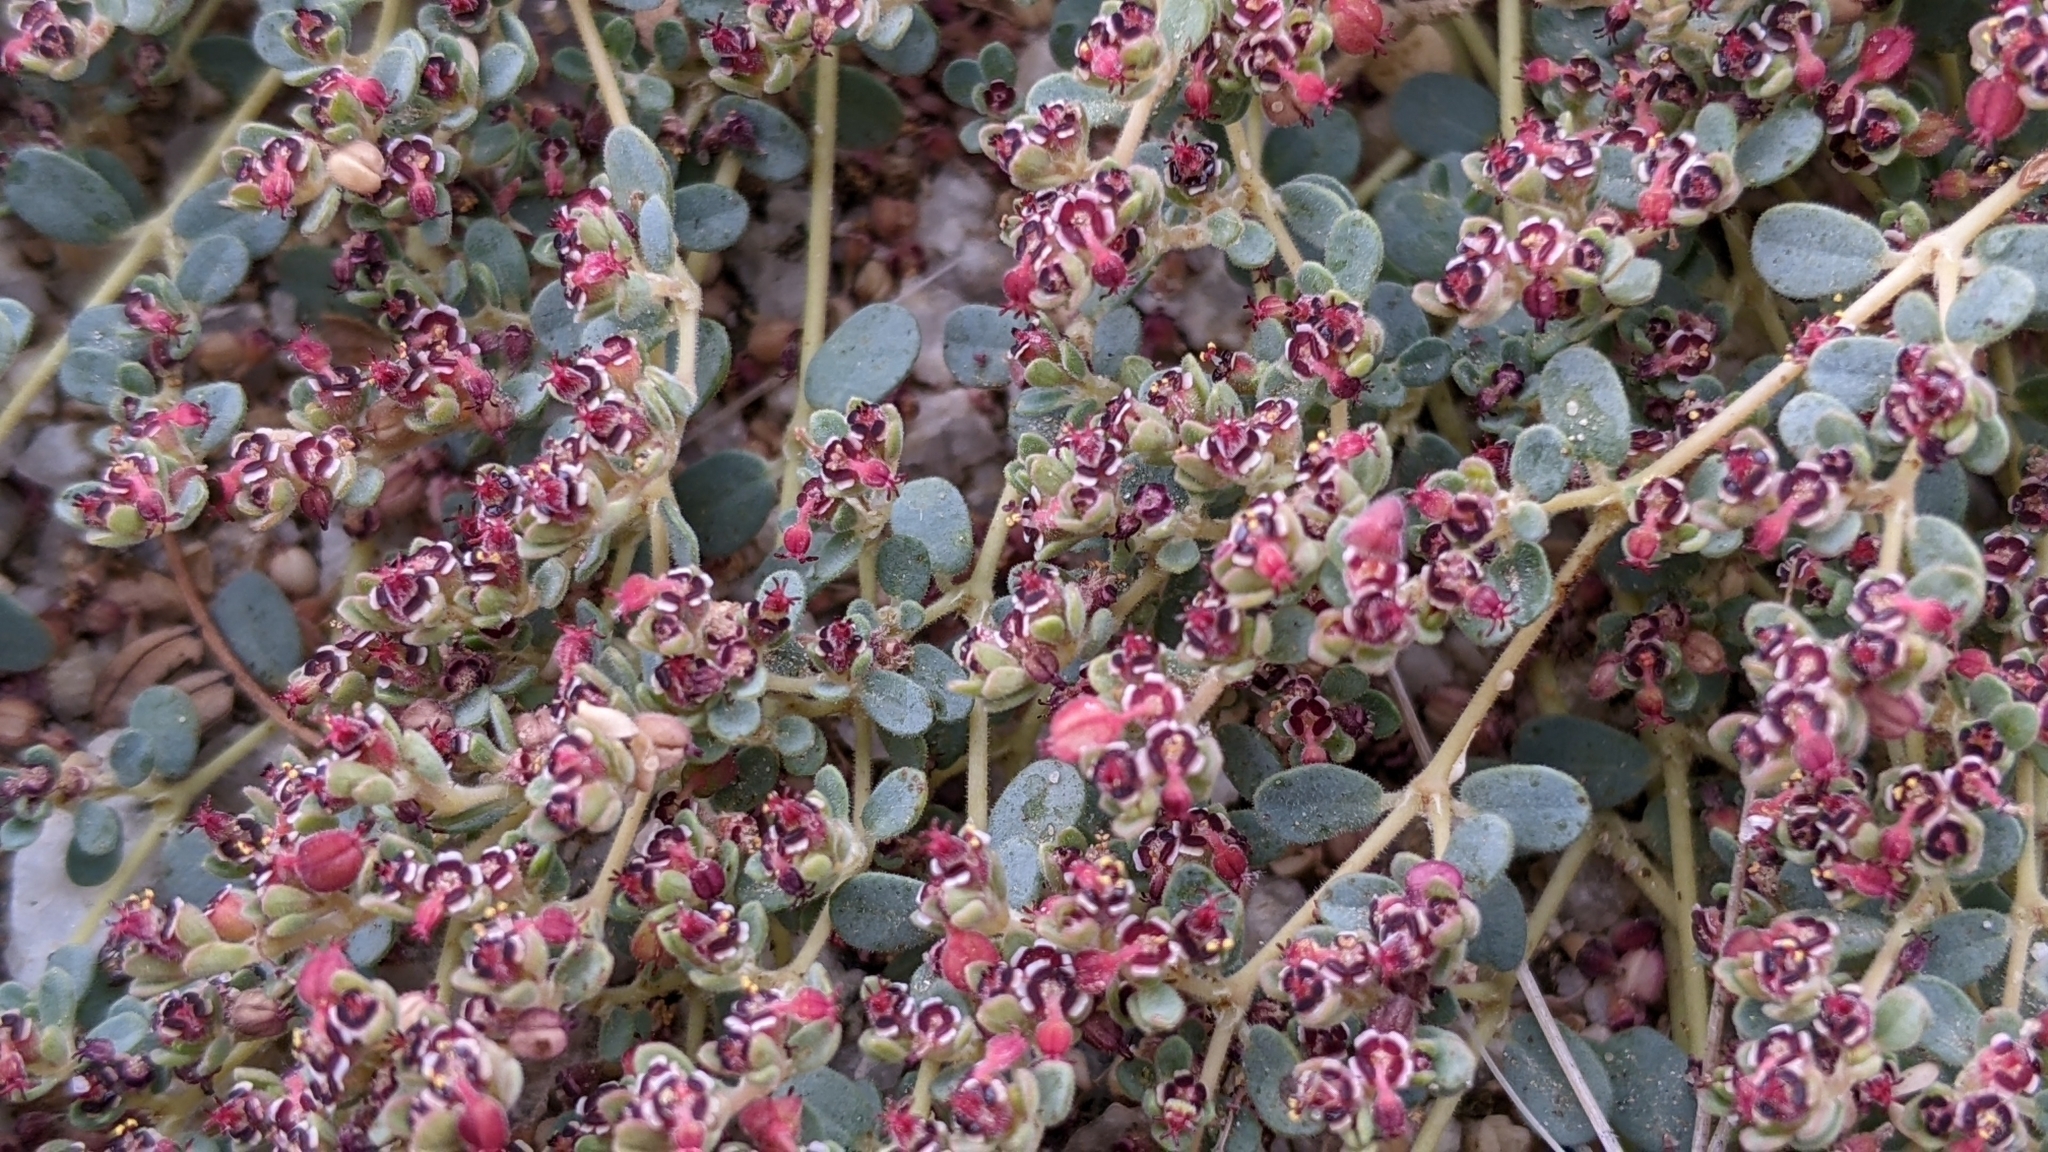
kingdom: Plantae
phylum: Tracheophyta
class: Magnoliopsida
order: Malpighiales
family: Euphorbiaceae
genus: Euphorbia
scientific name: Euphorbia polycarpa
